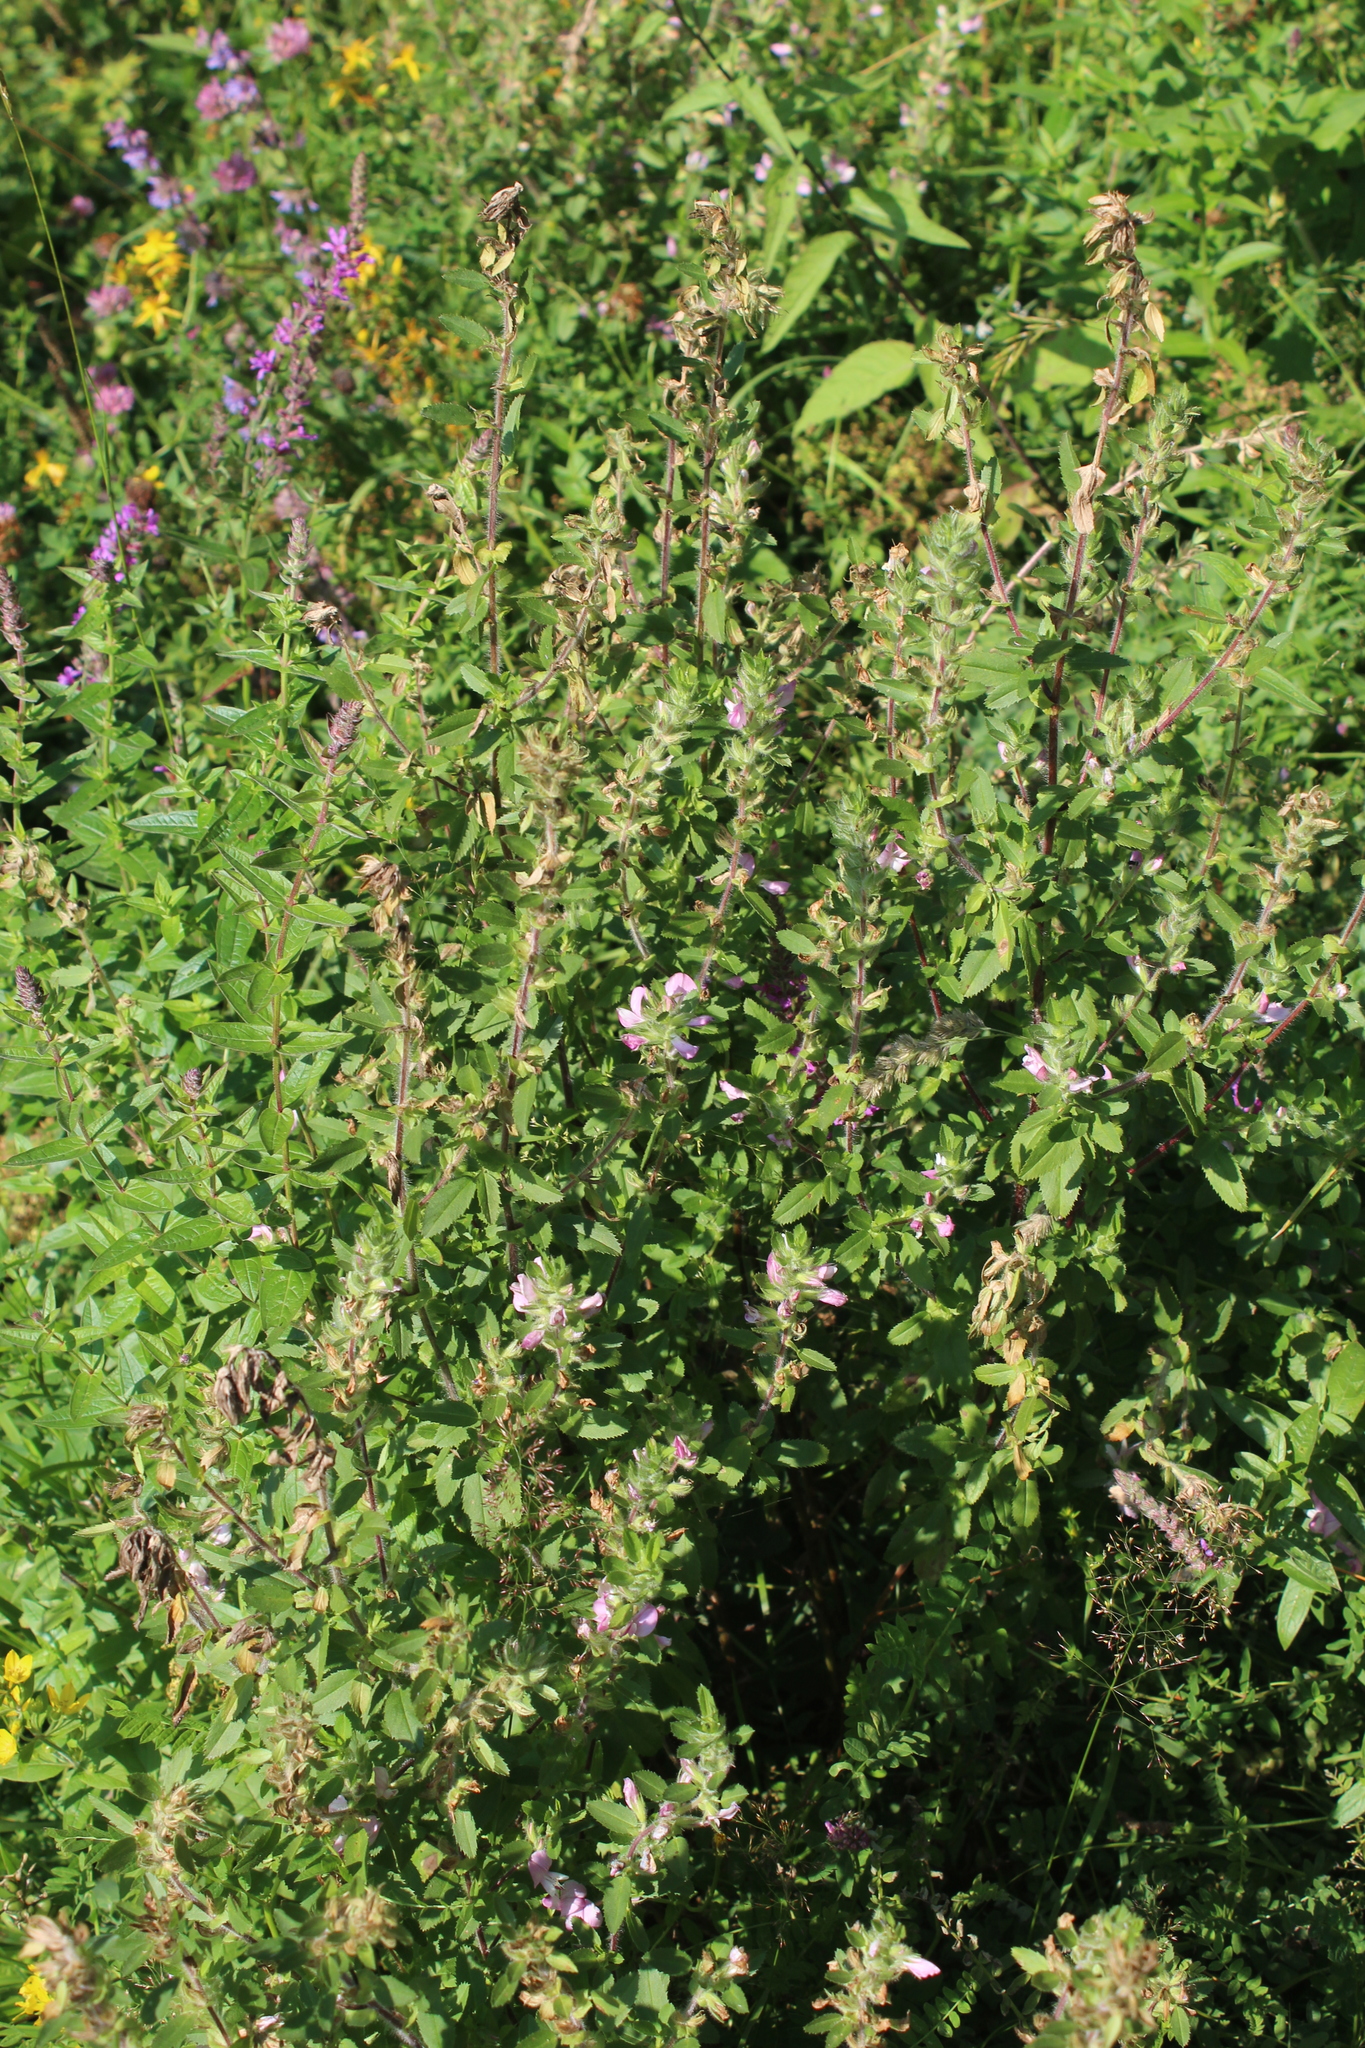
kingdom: Plantae
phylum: Tracheophyta
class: Magnoliopsida
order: Fabales
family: Fabaceae
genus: Ononis
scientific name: Ononis arvensis
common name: Field restharrow
